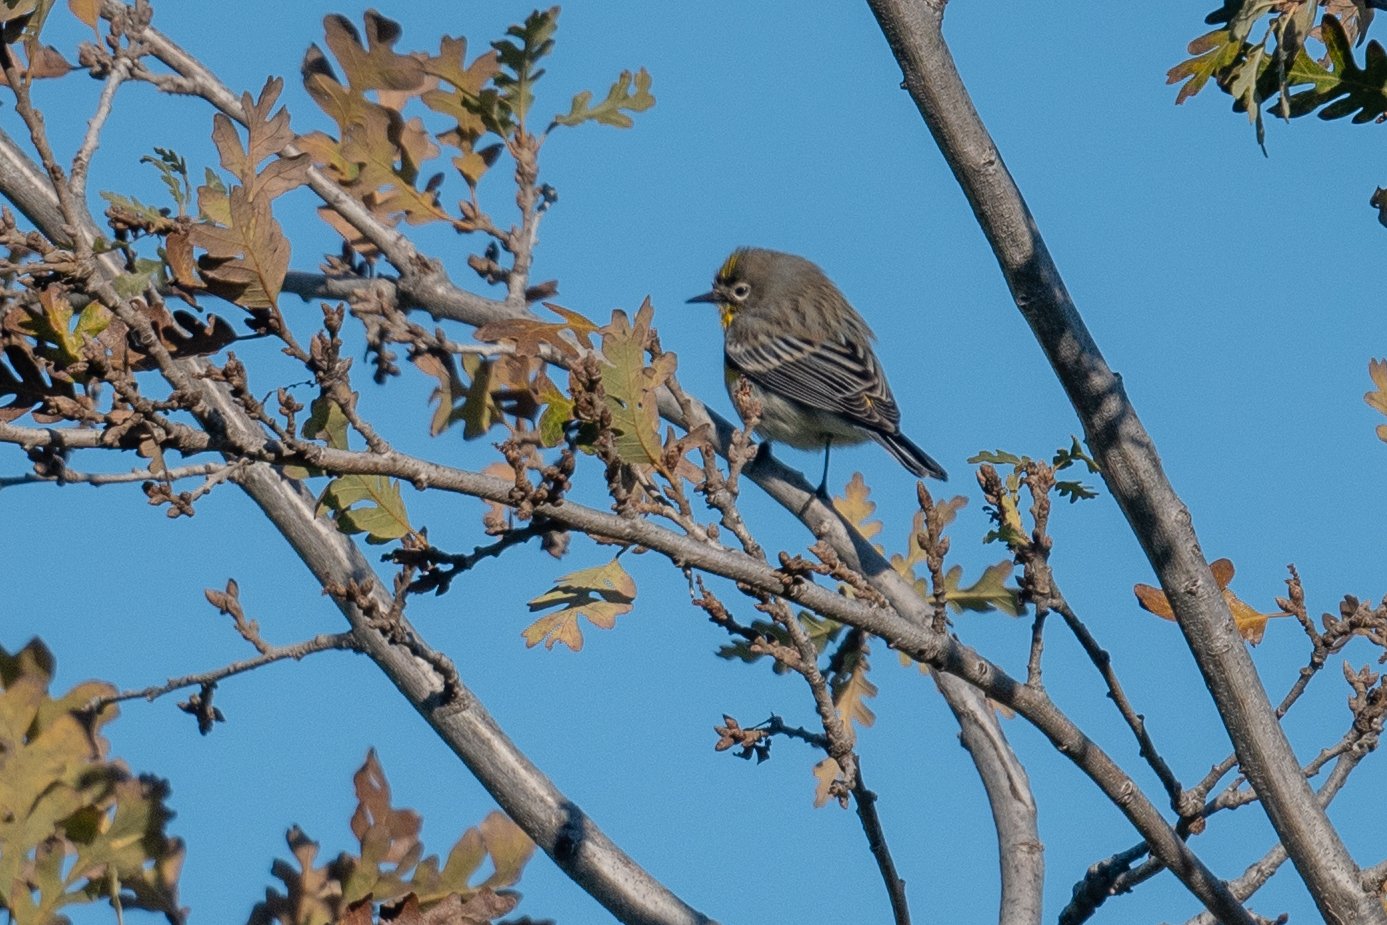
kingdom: Animalia
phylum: Chordata
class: Aves
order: Passeriformes
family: Parulidae
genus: Setophaga
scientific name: Setophaga coronata
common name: Myrtle warbler
